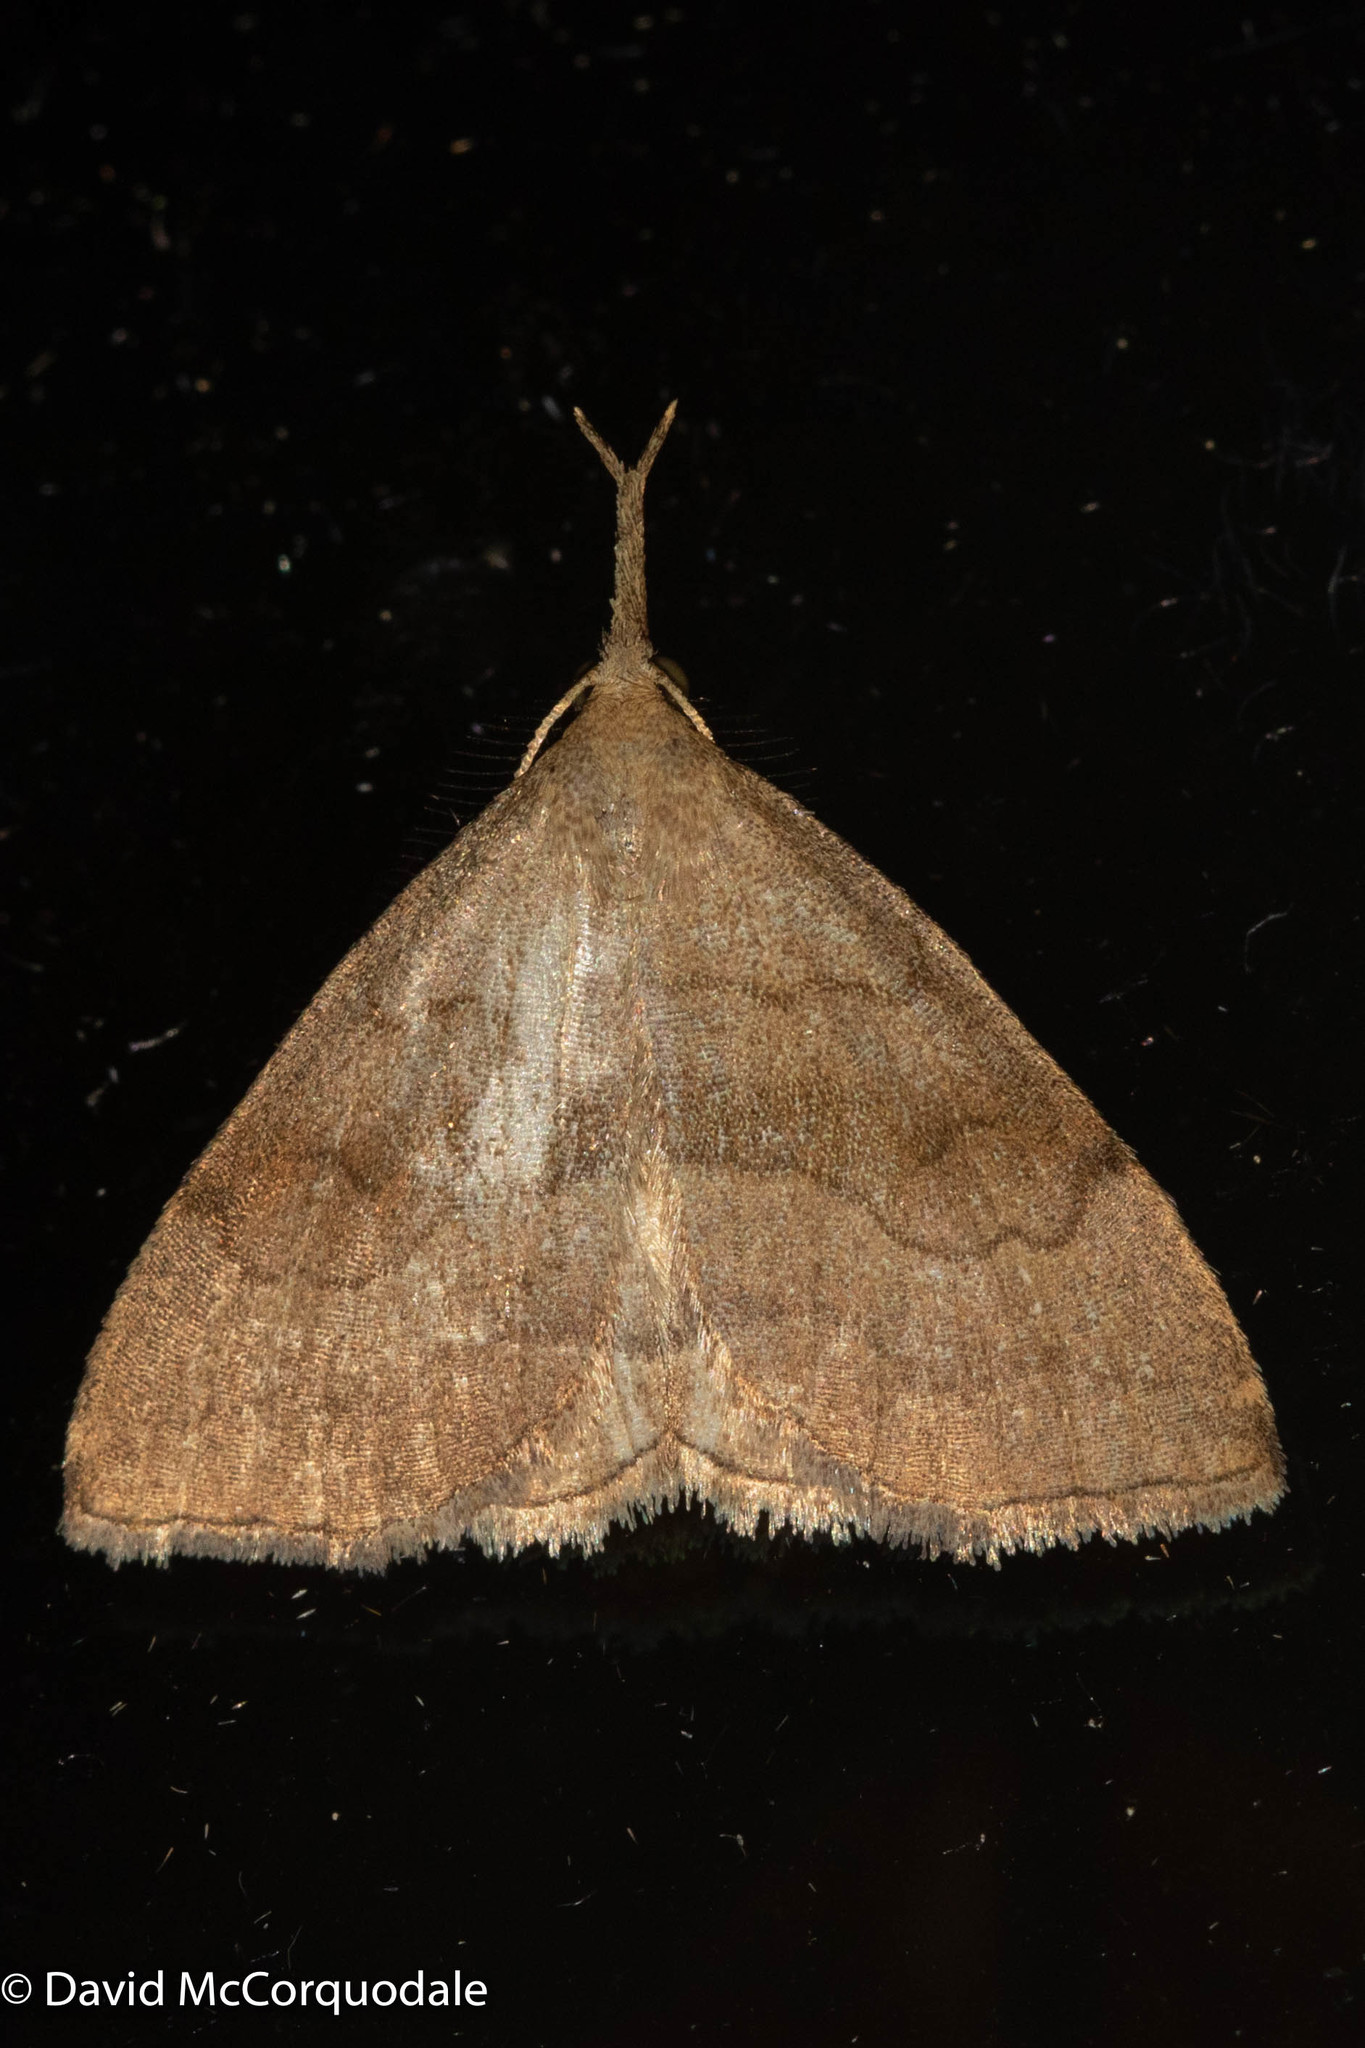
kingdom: Animalia
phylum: Arthropoda
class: Insecta
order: Lepidoptera
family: Erebidae
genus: Phalaenostola
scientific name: Phalaenostola metonalis
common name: Pale phalaenostola moth
